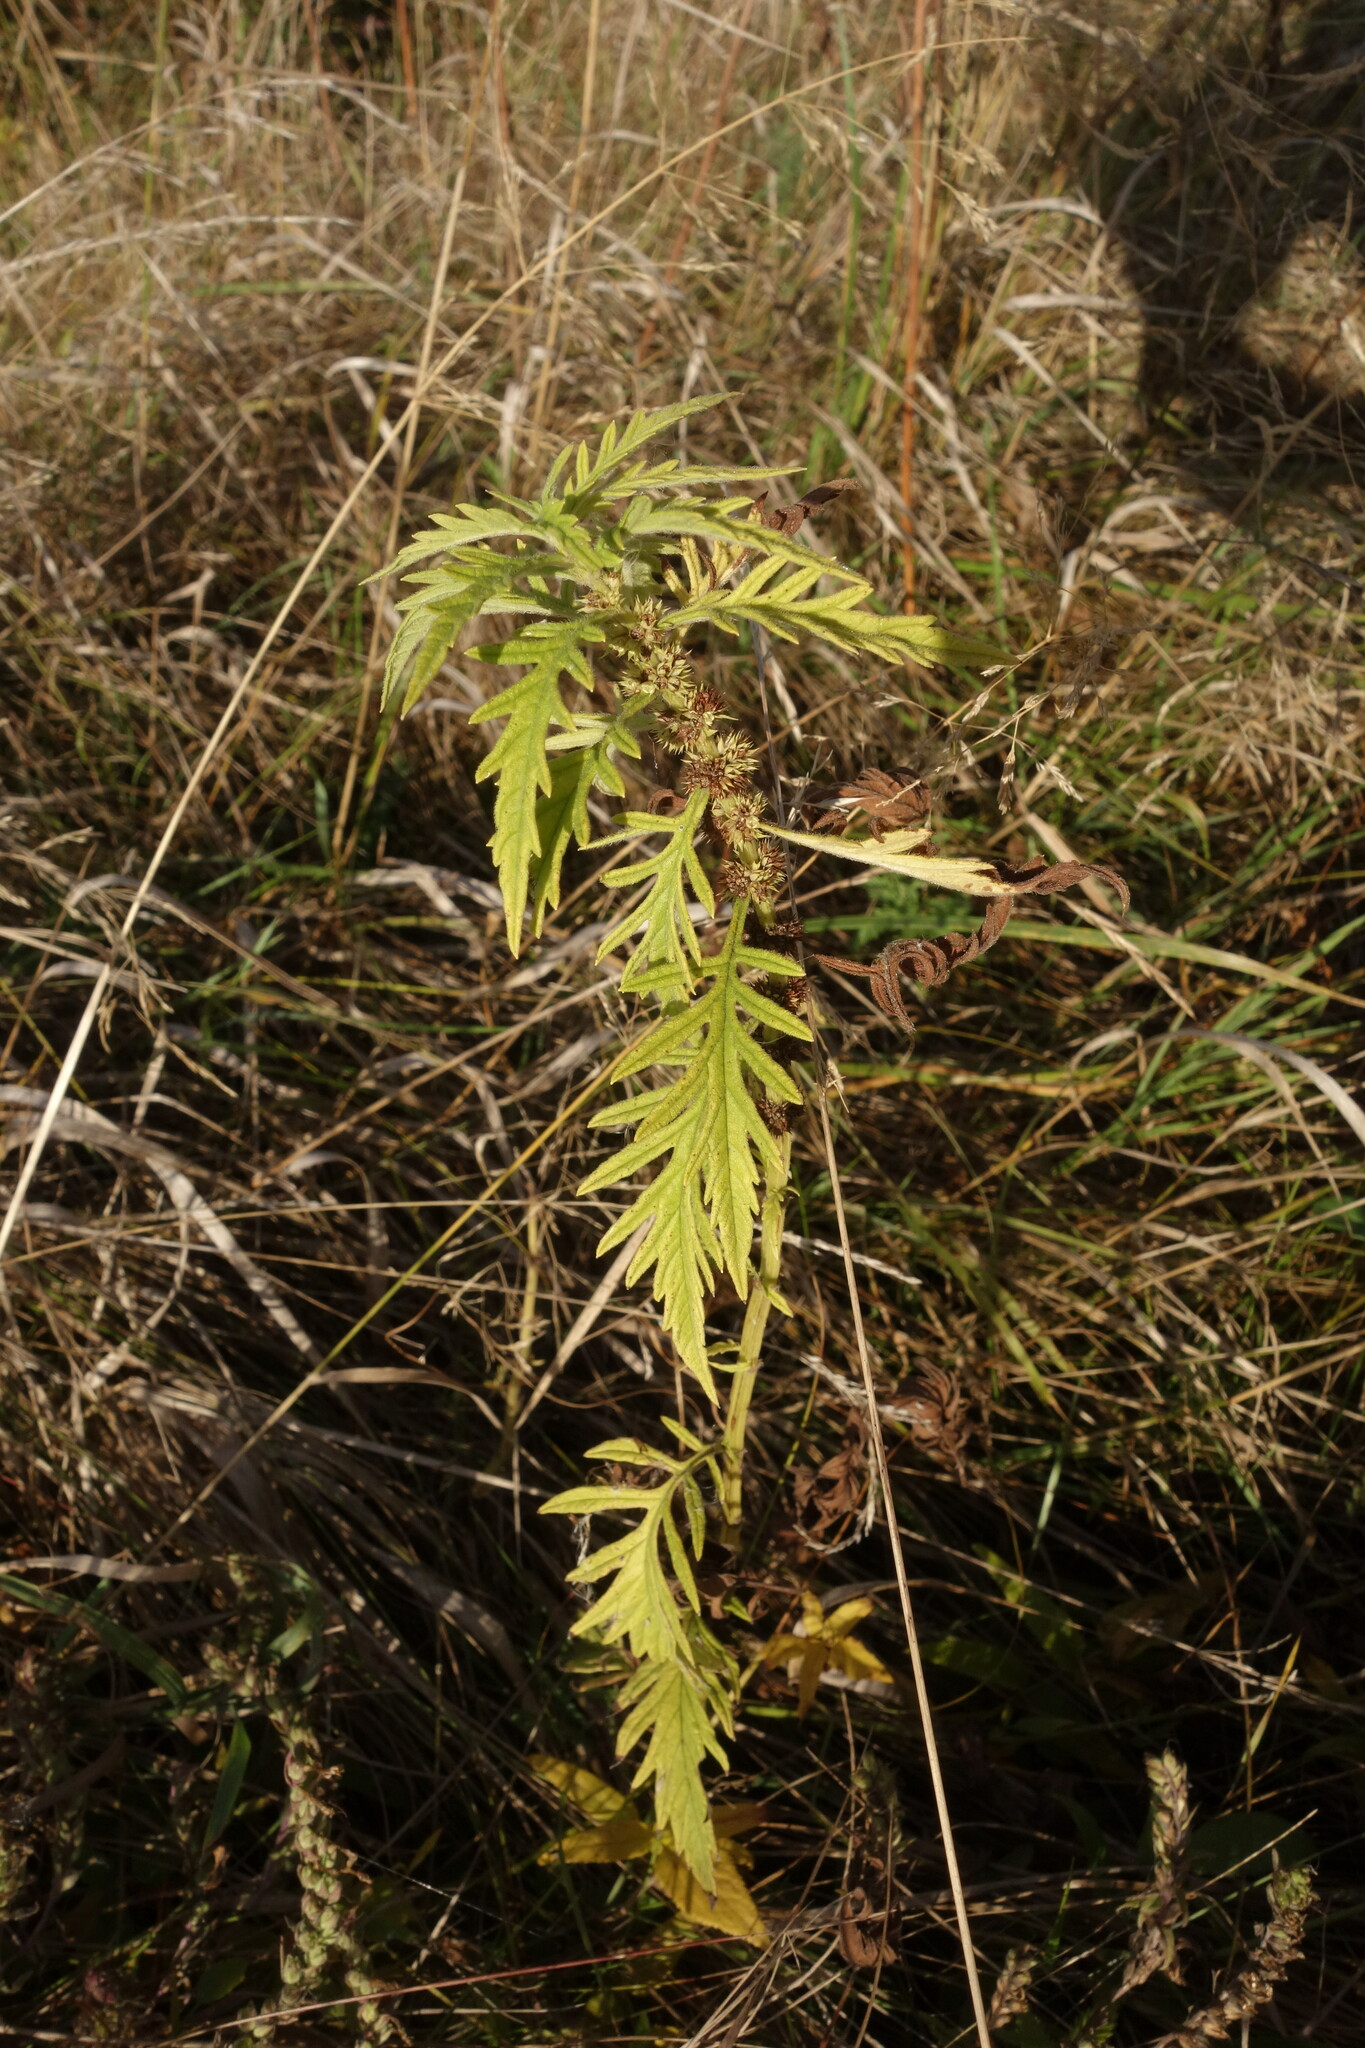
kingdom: Plantae
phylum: Tracheophyta
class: Magnoliopsida
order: Lamiales
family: Lamiaceae
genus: Lycopus
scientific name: Lycopus exaltatus
